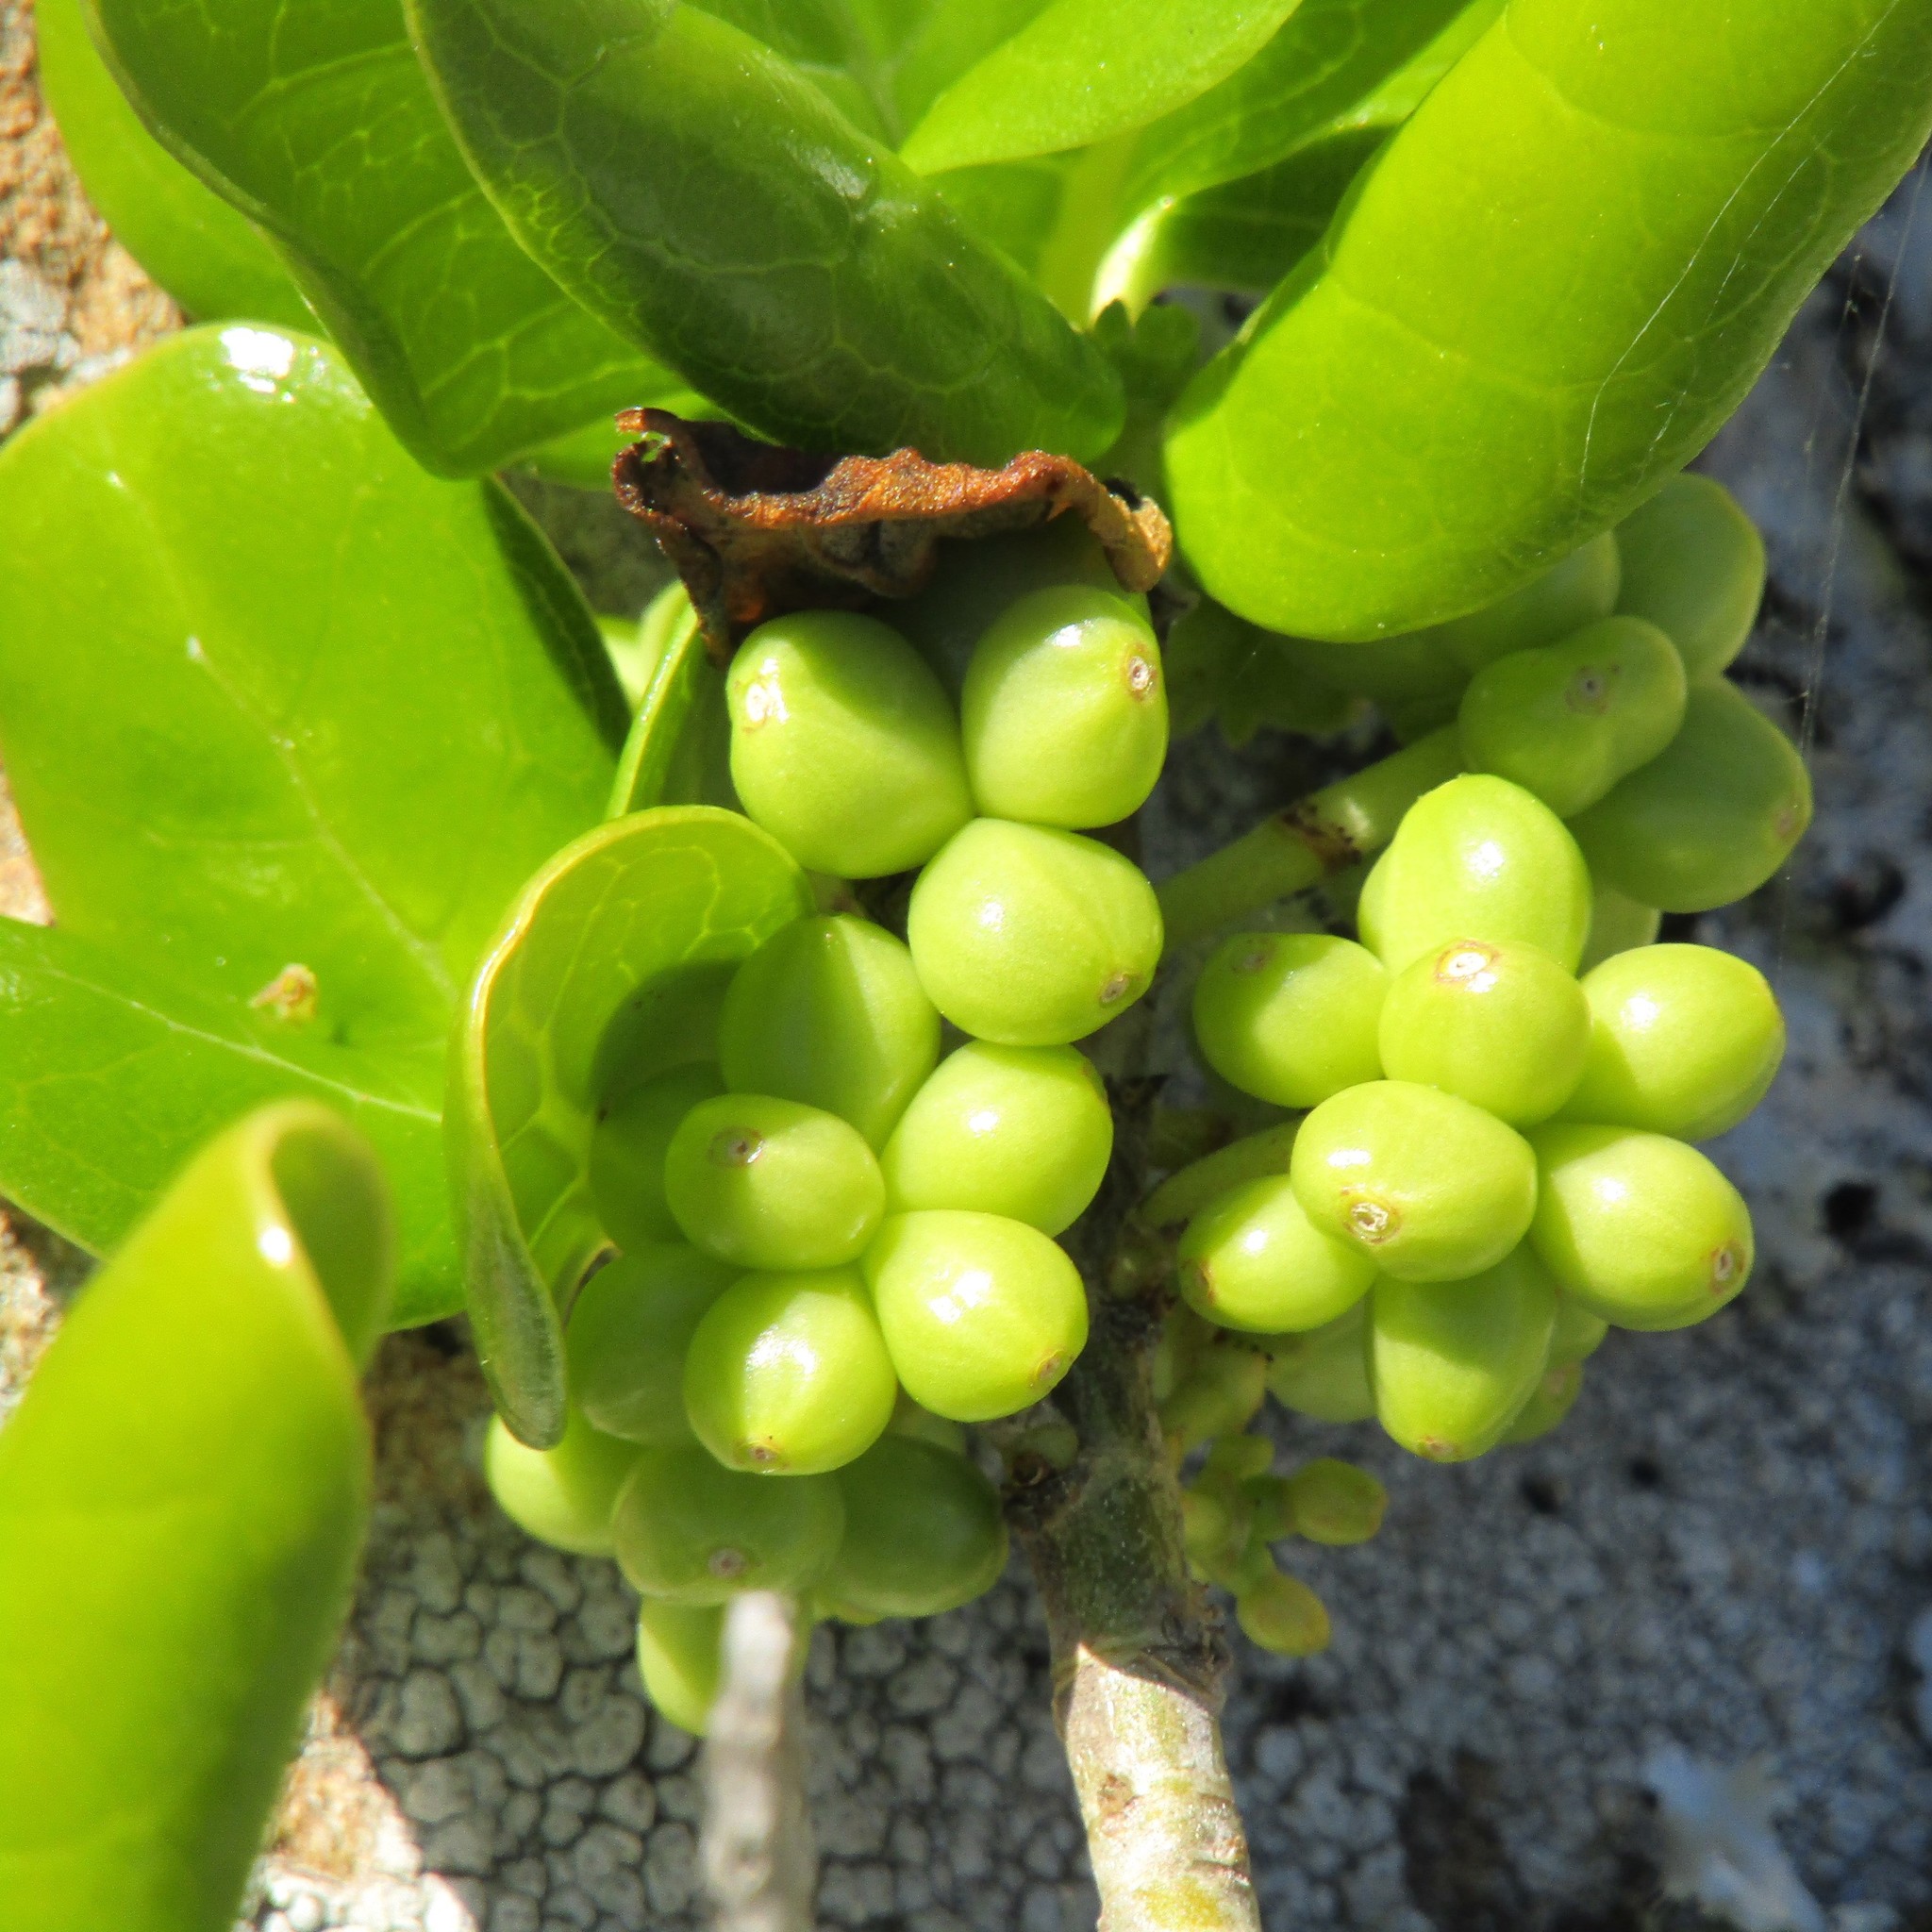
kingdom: Plantae
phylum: Tracheophyta
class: Magnoliopsida
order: Gentianales
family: Rubiaceae
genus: Coprosma
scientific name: Coprosma repens
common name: Tree bedstraw
